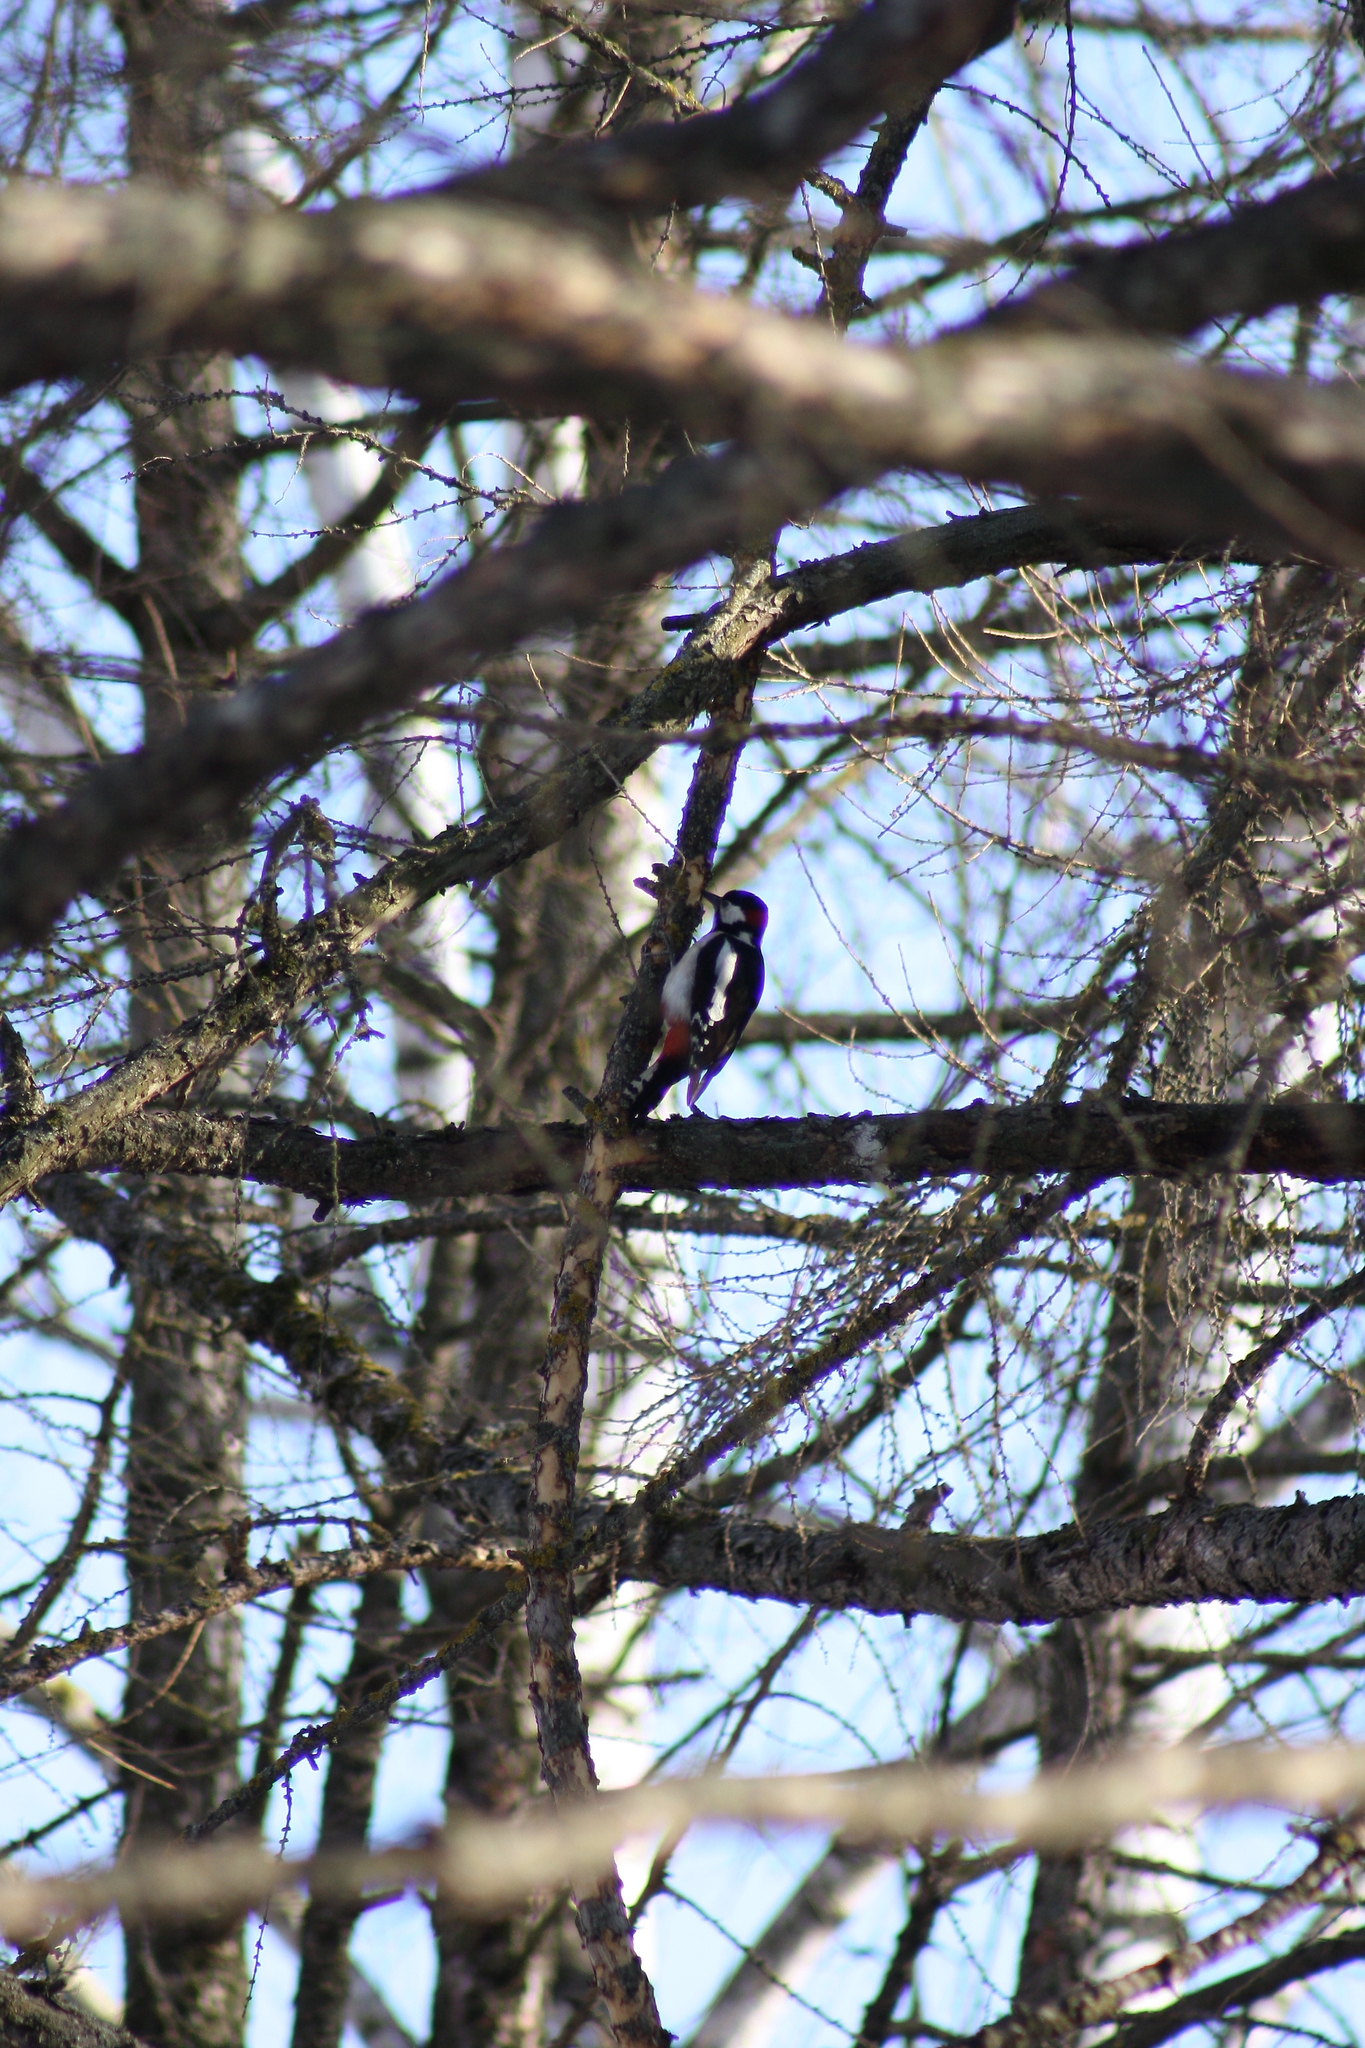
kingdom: Animalia
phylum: Chordata
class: Aves
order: Piciformes
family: Picidae
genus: Dendrocopos
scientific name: Dendrocopos major
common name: Great spotted woodpecker
